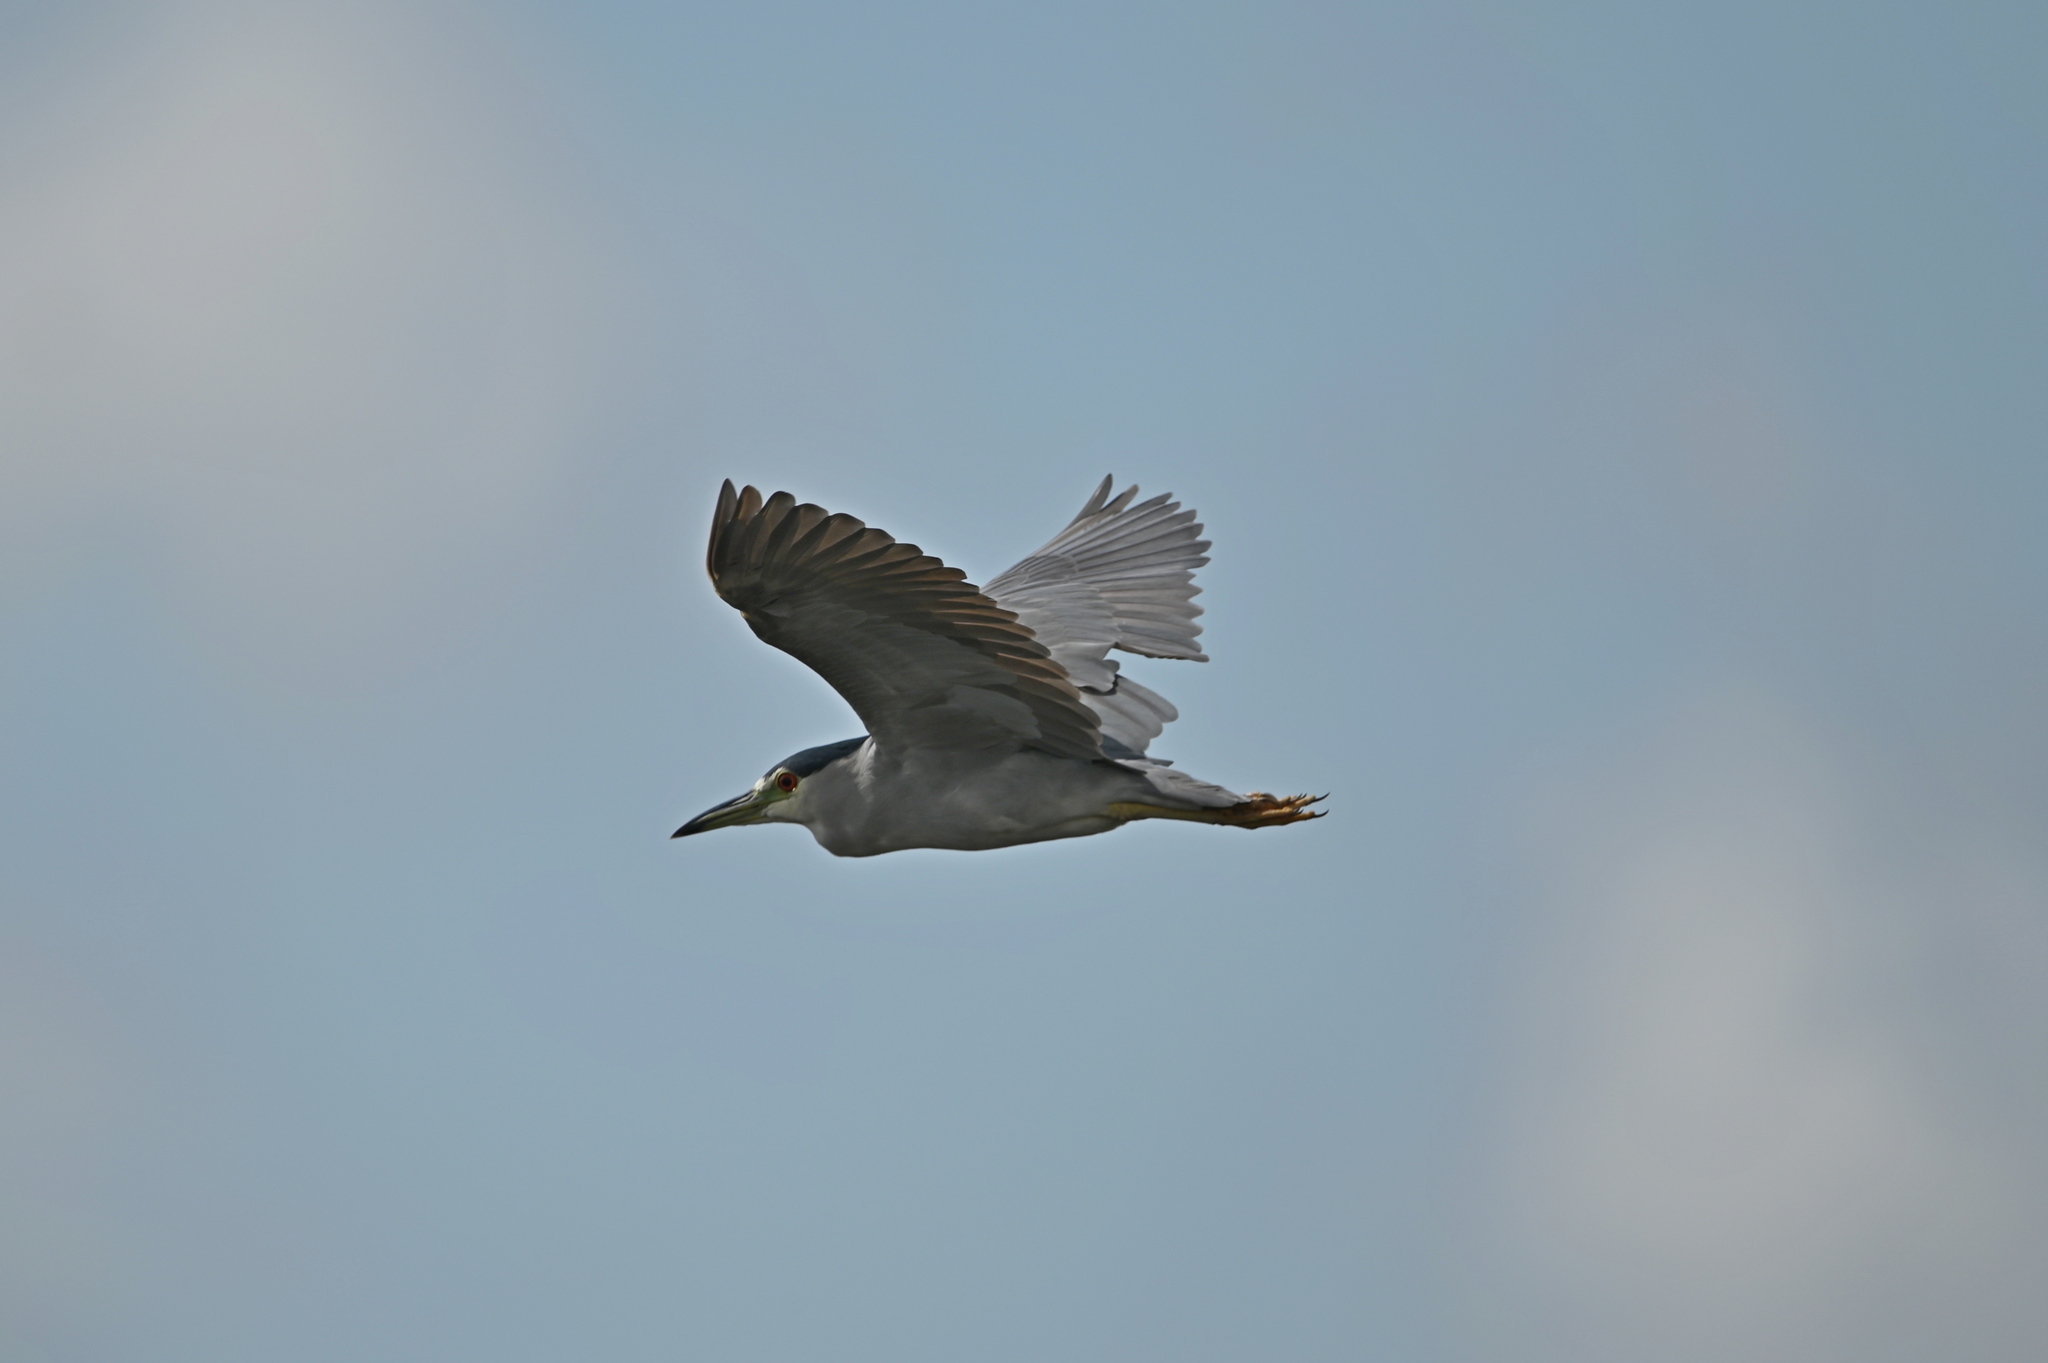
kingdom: Animalia
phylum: Chordata
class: Aves
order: Pelecaniformes
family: Ardeidae
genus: Nycticorax
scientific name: Nycticorax nycticorax
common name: Black-crowned night heron
